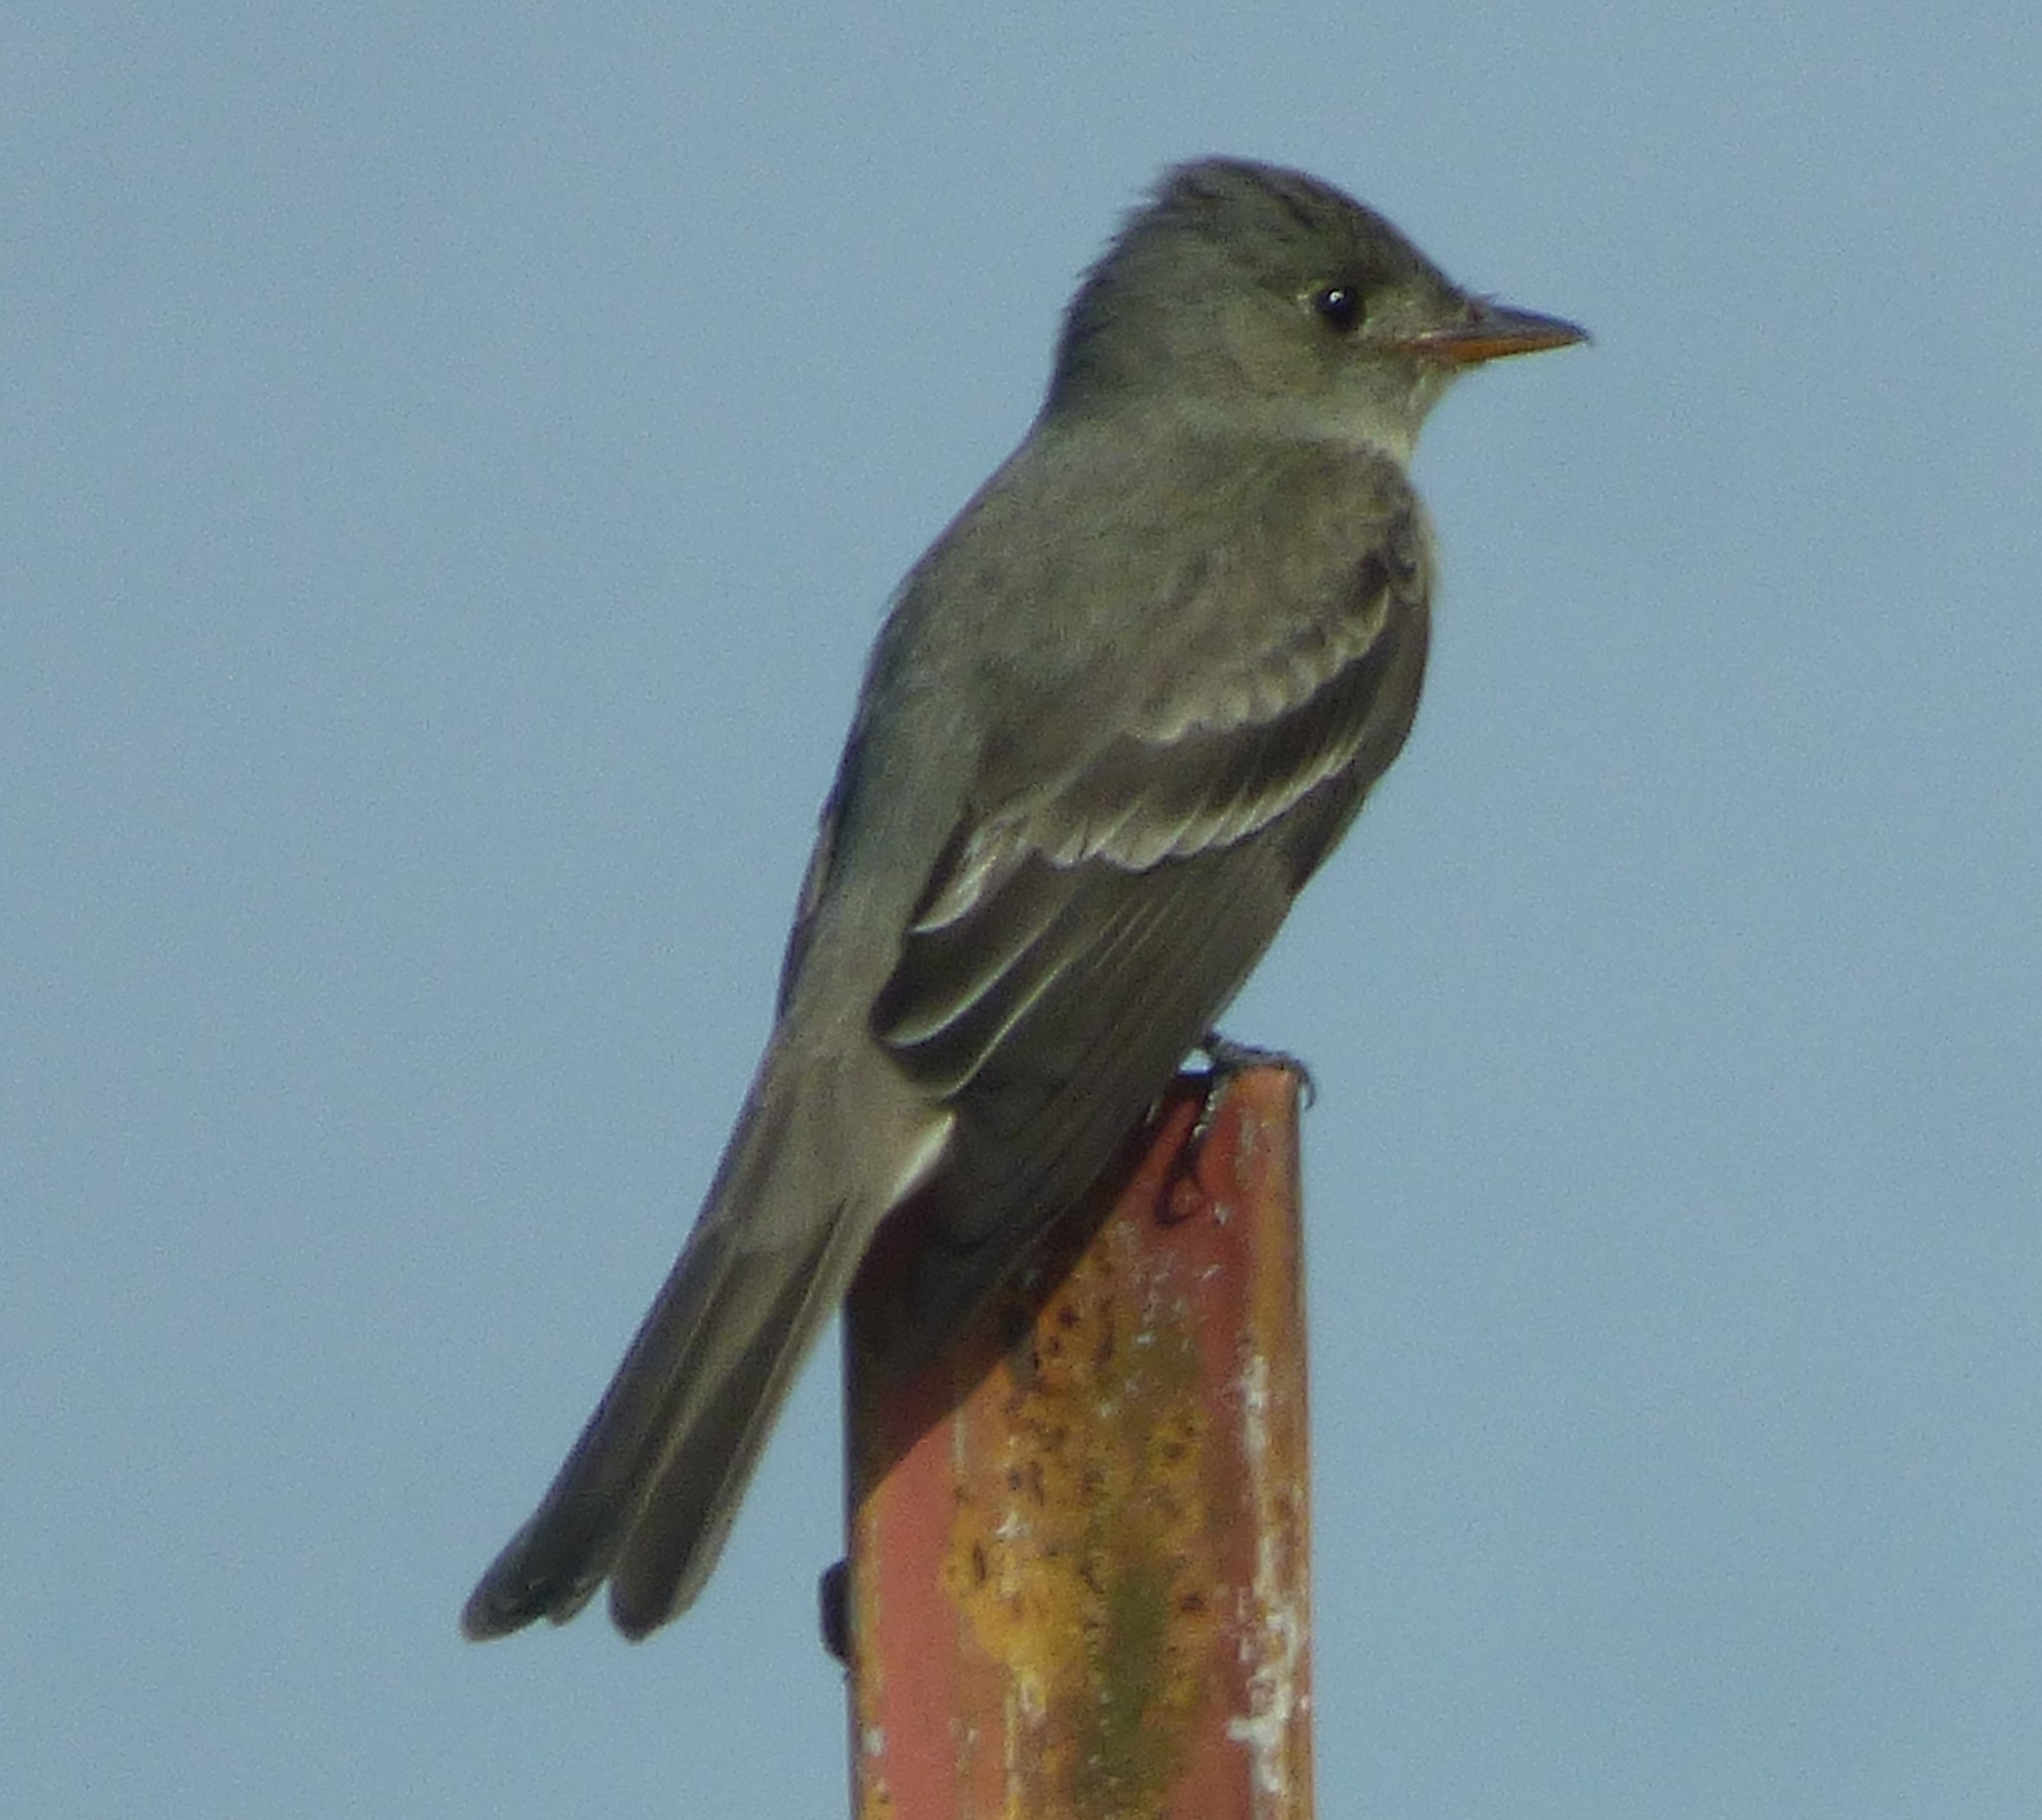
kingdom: Animalia
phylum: Chordata
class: Aves
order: Passeriformes
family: Tyrannidae
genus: Contopus
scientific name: Contopus virens
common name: Eastern wood-pewee
